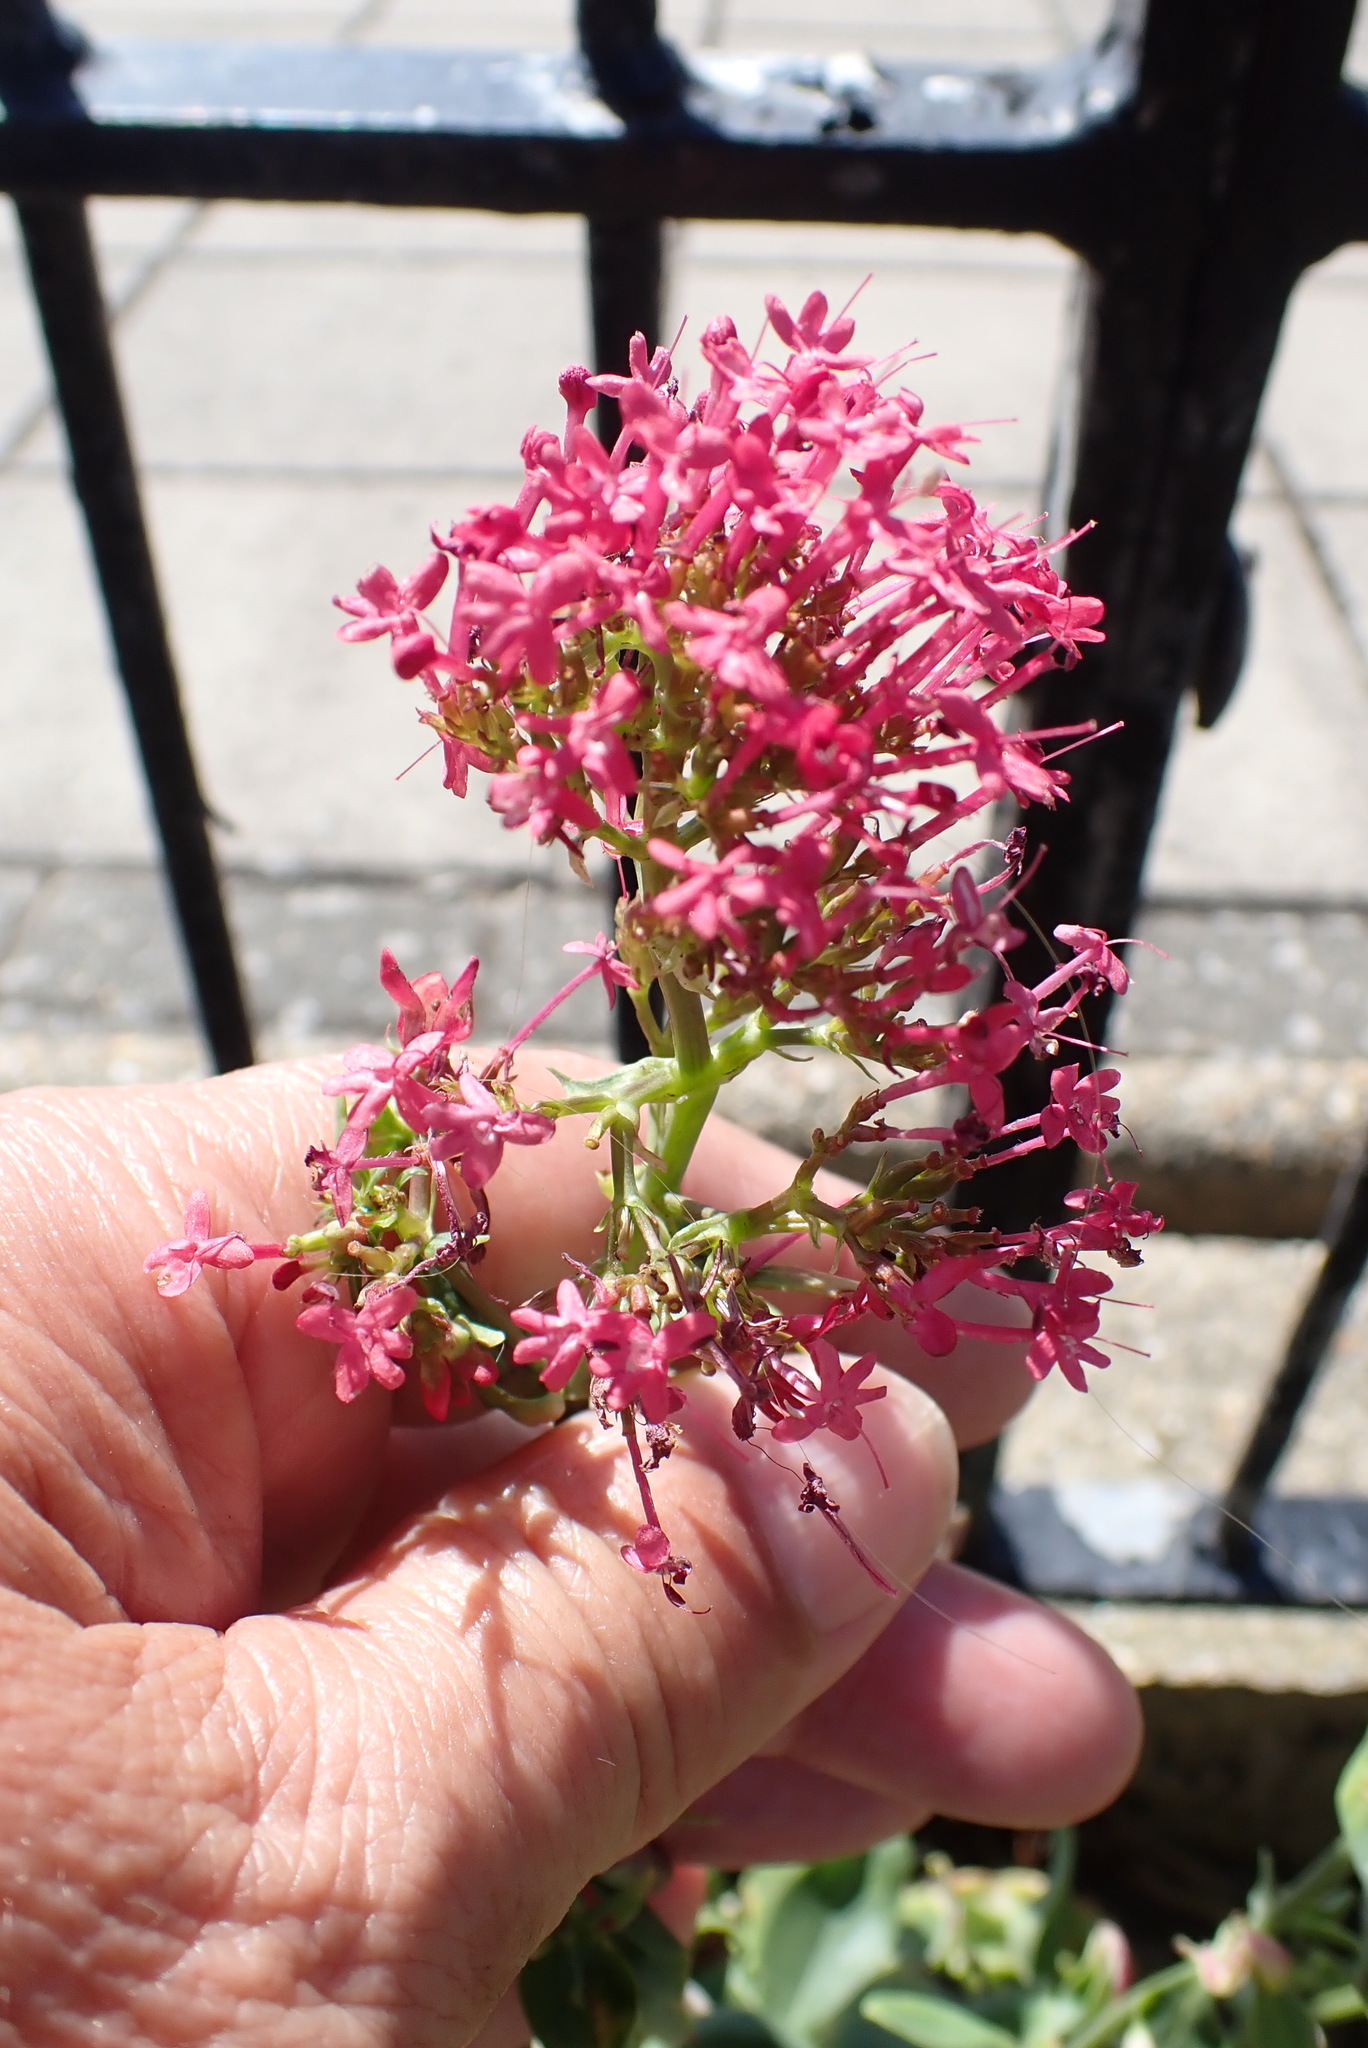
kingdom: Plantae
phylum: Tracheophyta
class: Magnoliopsida
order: Dipsacales
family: Caprifoliaceae
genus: Centranthus
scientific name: Centranthus ruber
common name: Red valerian
